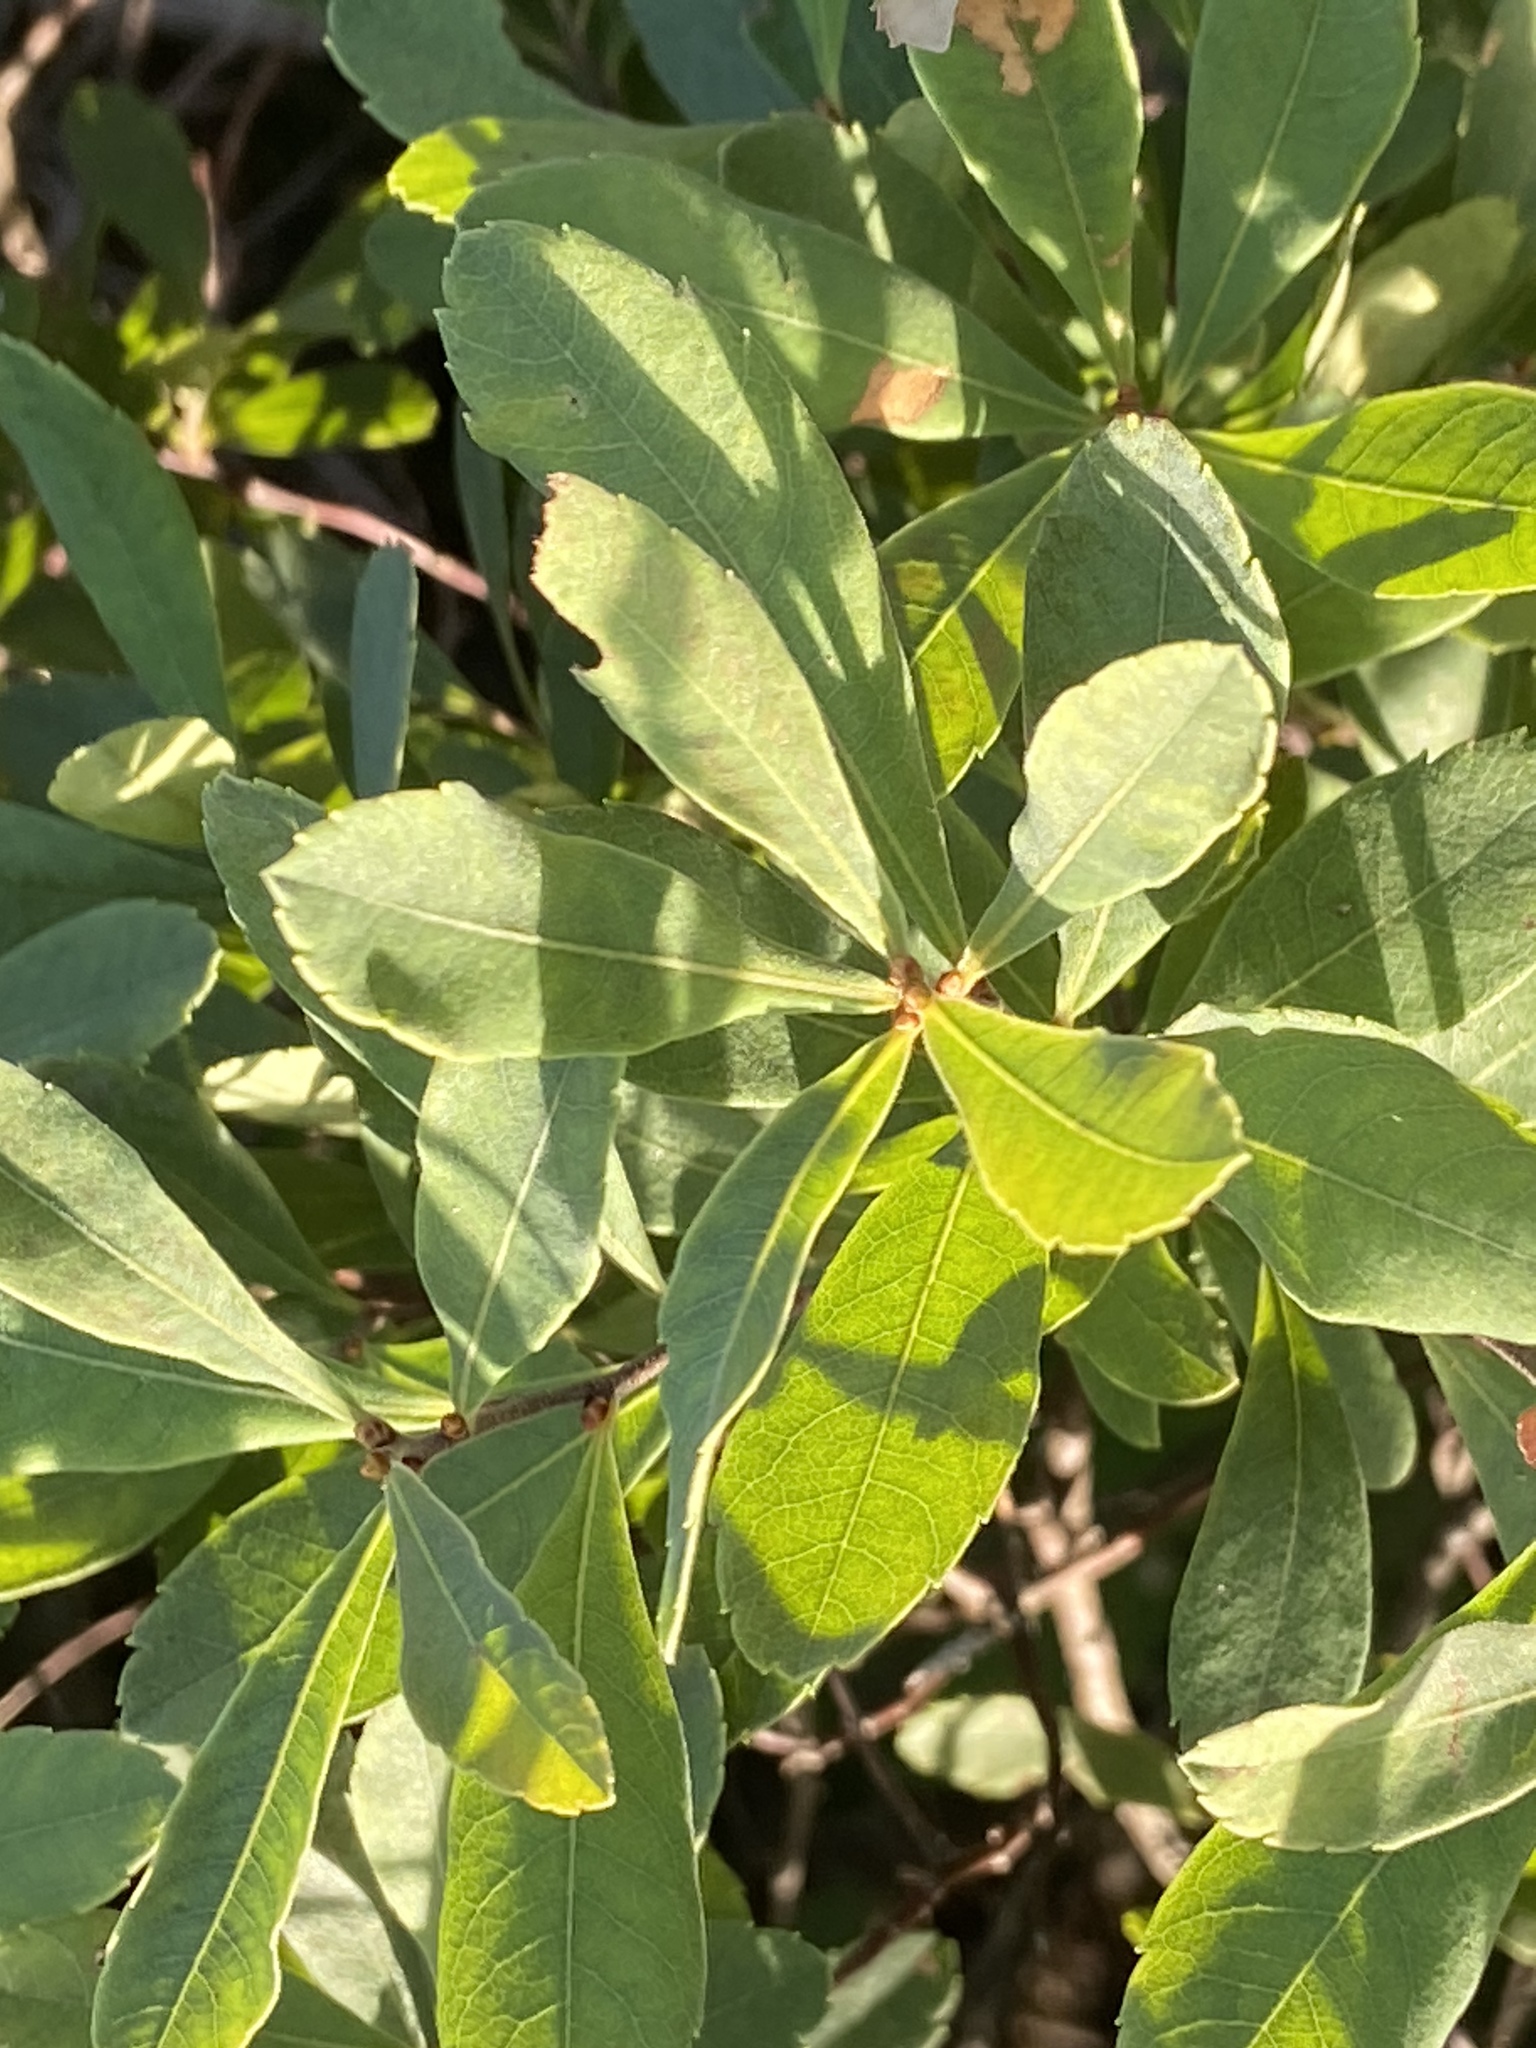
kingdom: Plantae
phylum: Tracheophyta
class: Magnoliopsida
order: Fagales
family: Myricaceae
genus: Myrica
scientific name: Myrica gale
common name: Sweet gale
